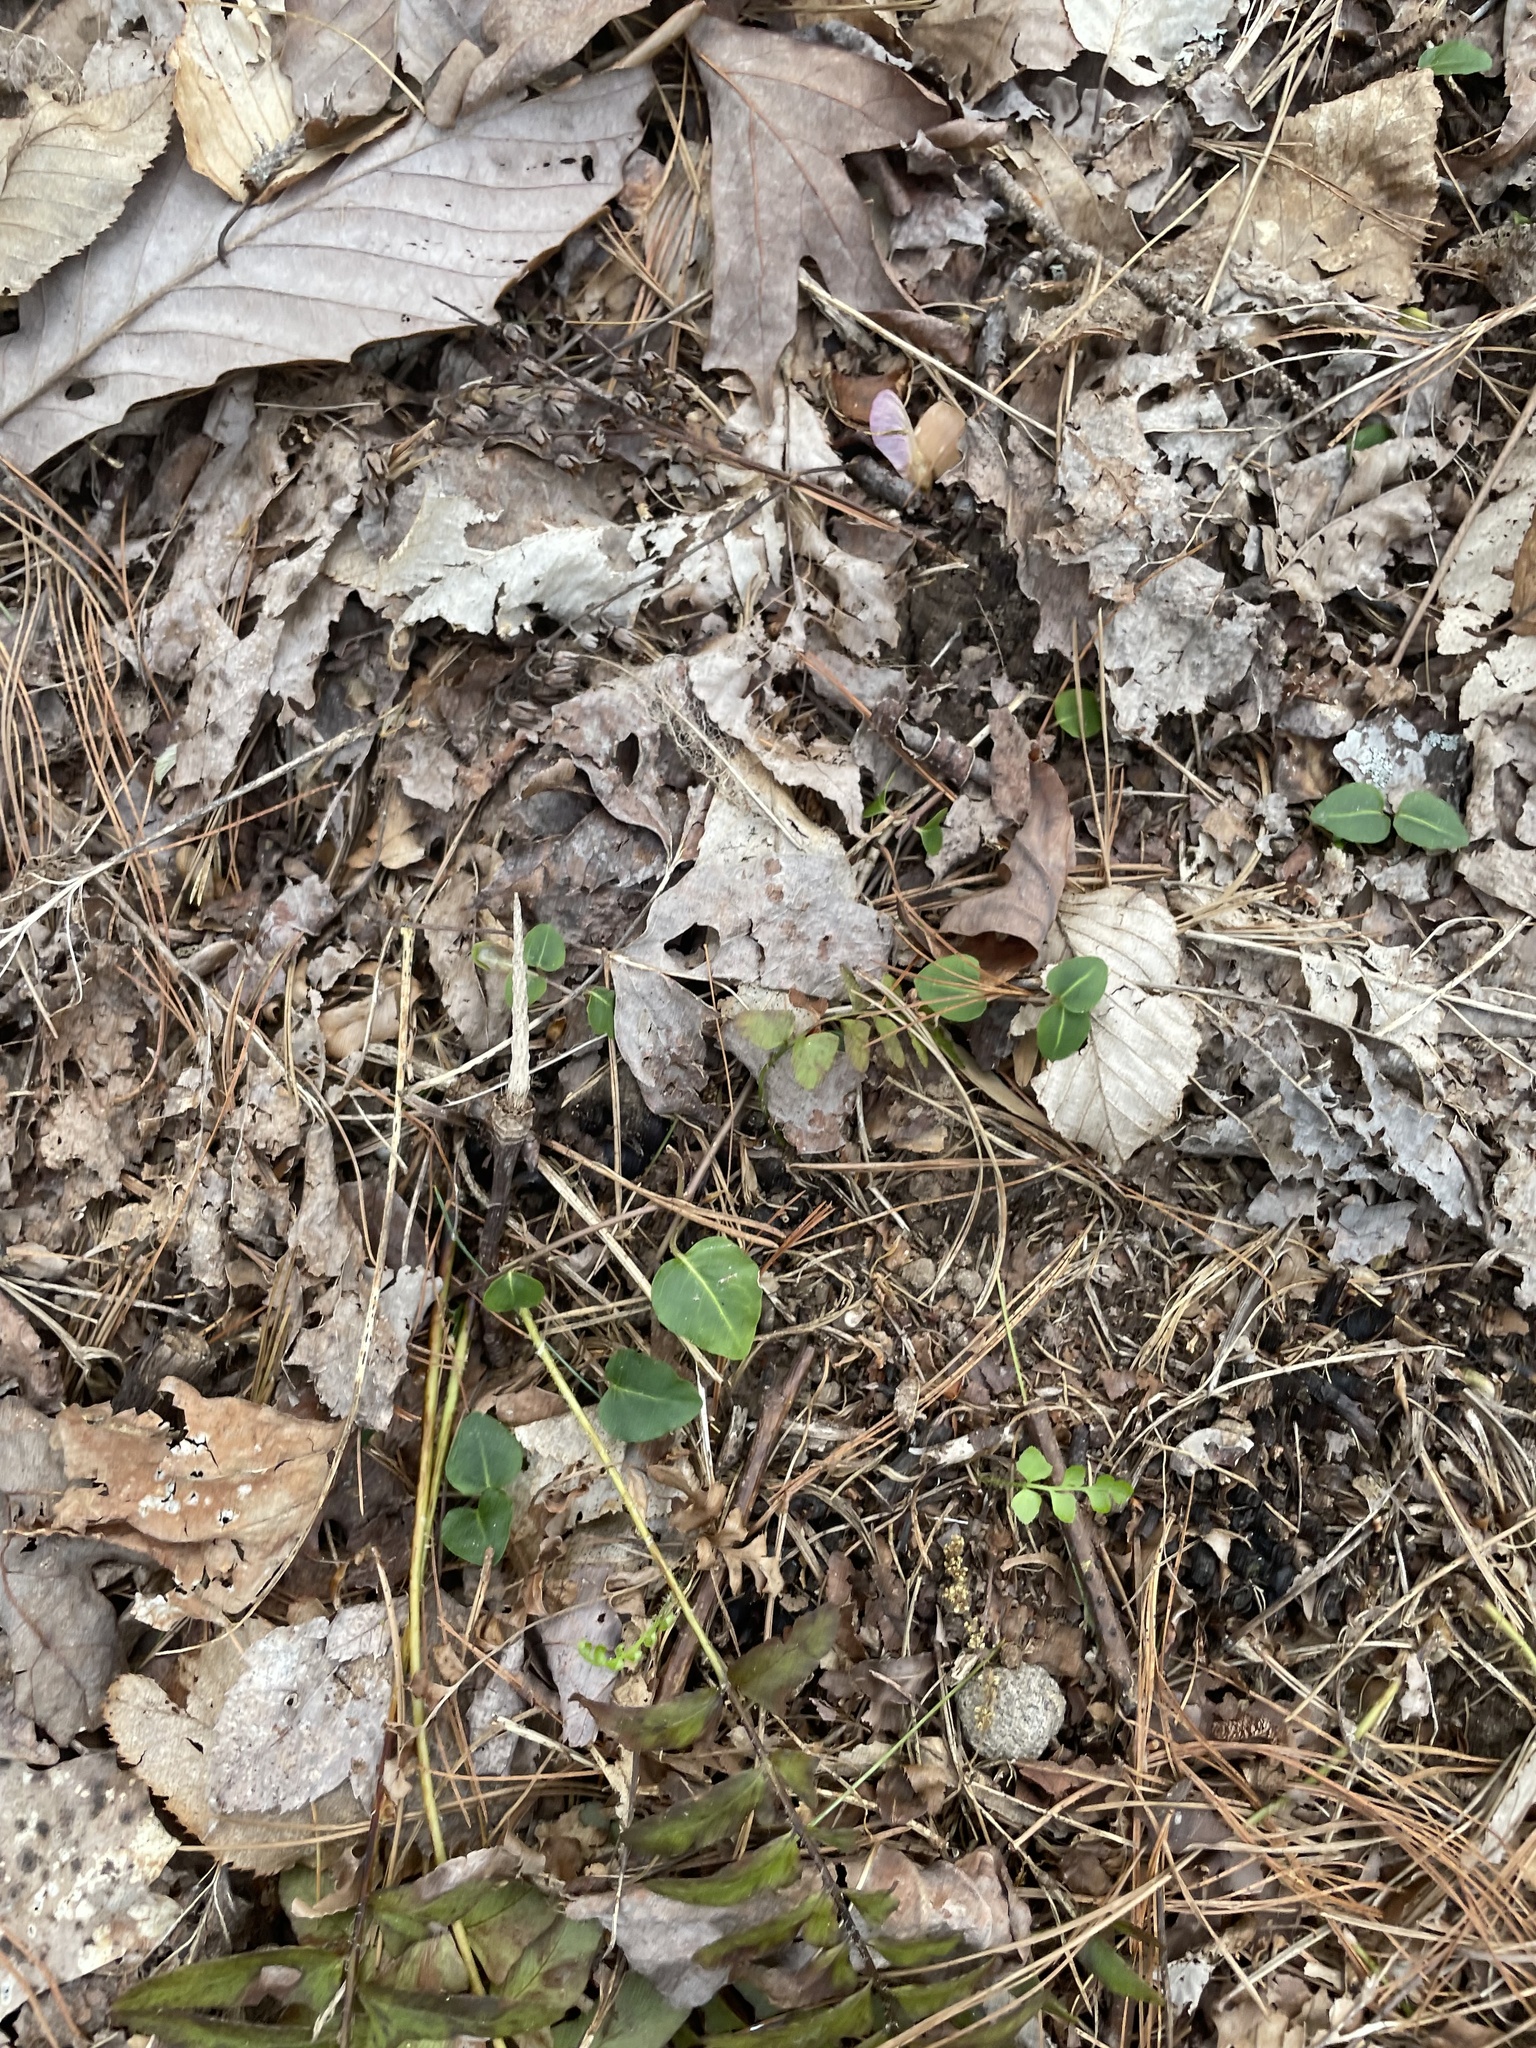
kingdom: Plantae
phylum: Tracheophyta
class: Magnoliopsida
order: Gentianales
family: Rubiaceae
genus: Mitchella
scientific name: Mitchella repens
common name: Partridge-berry
